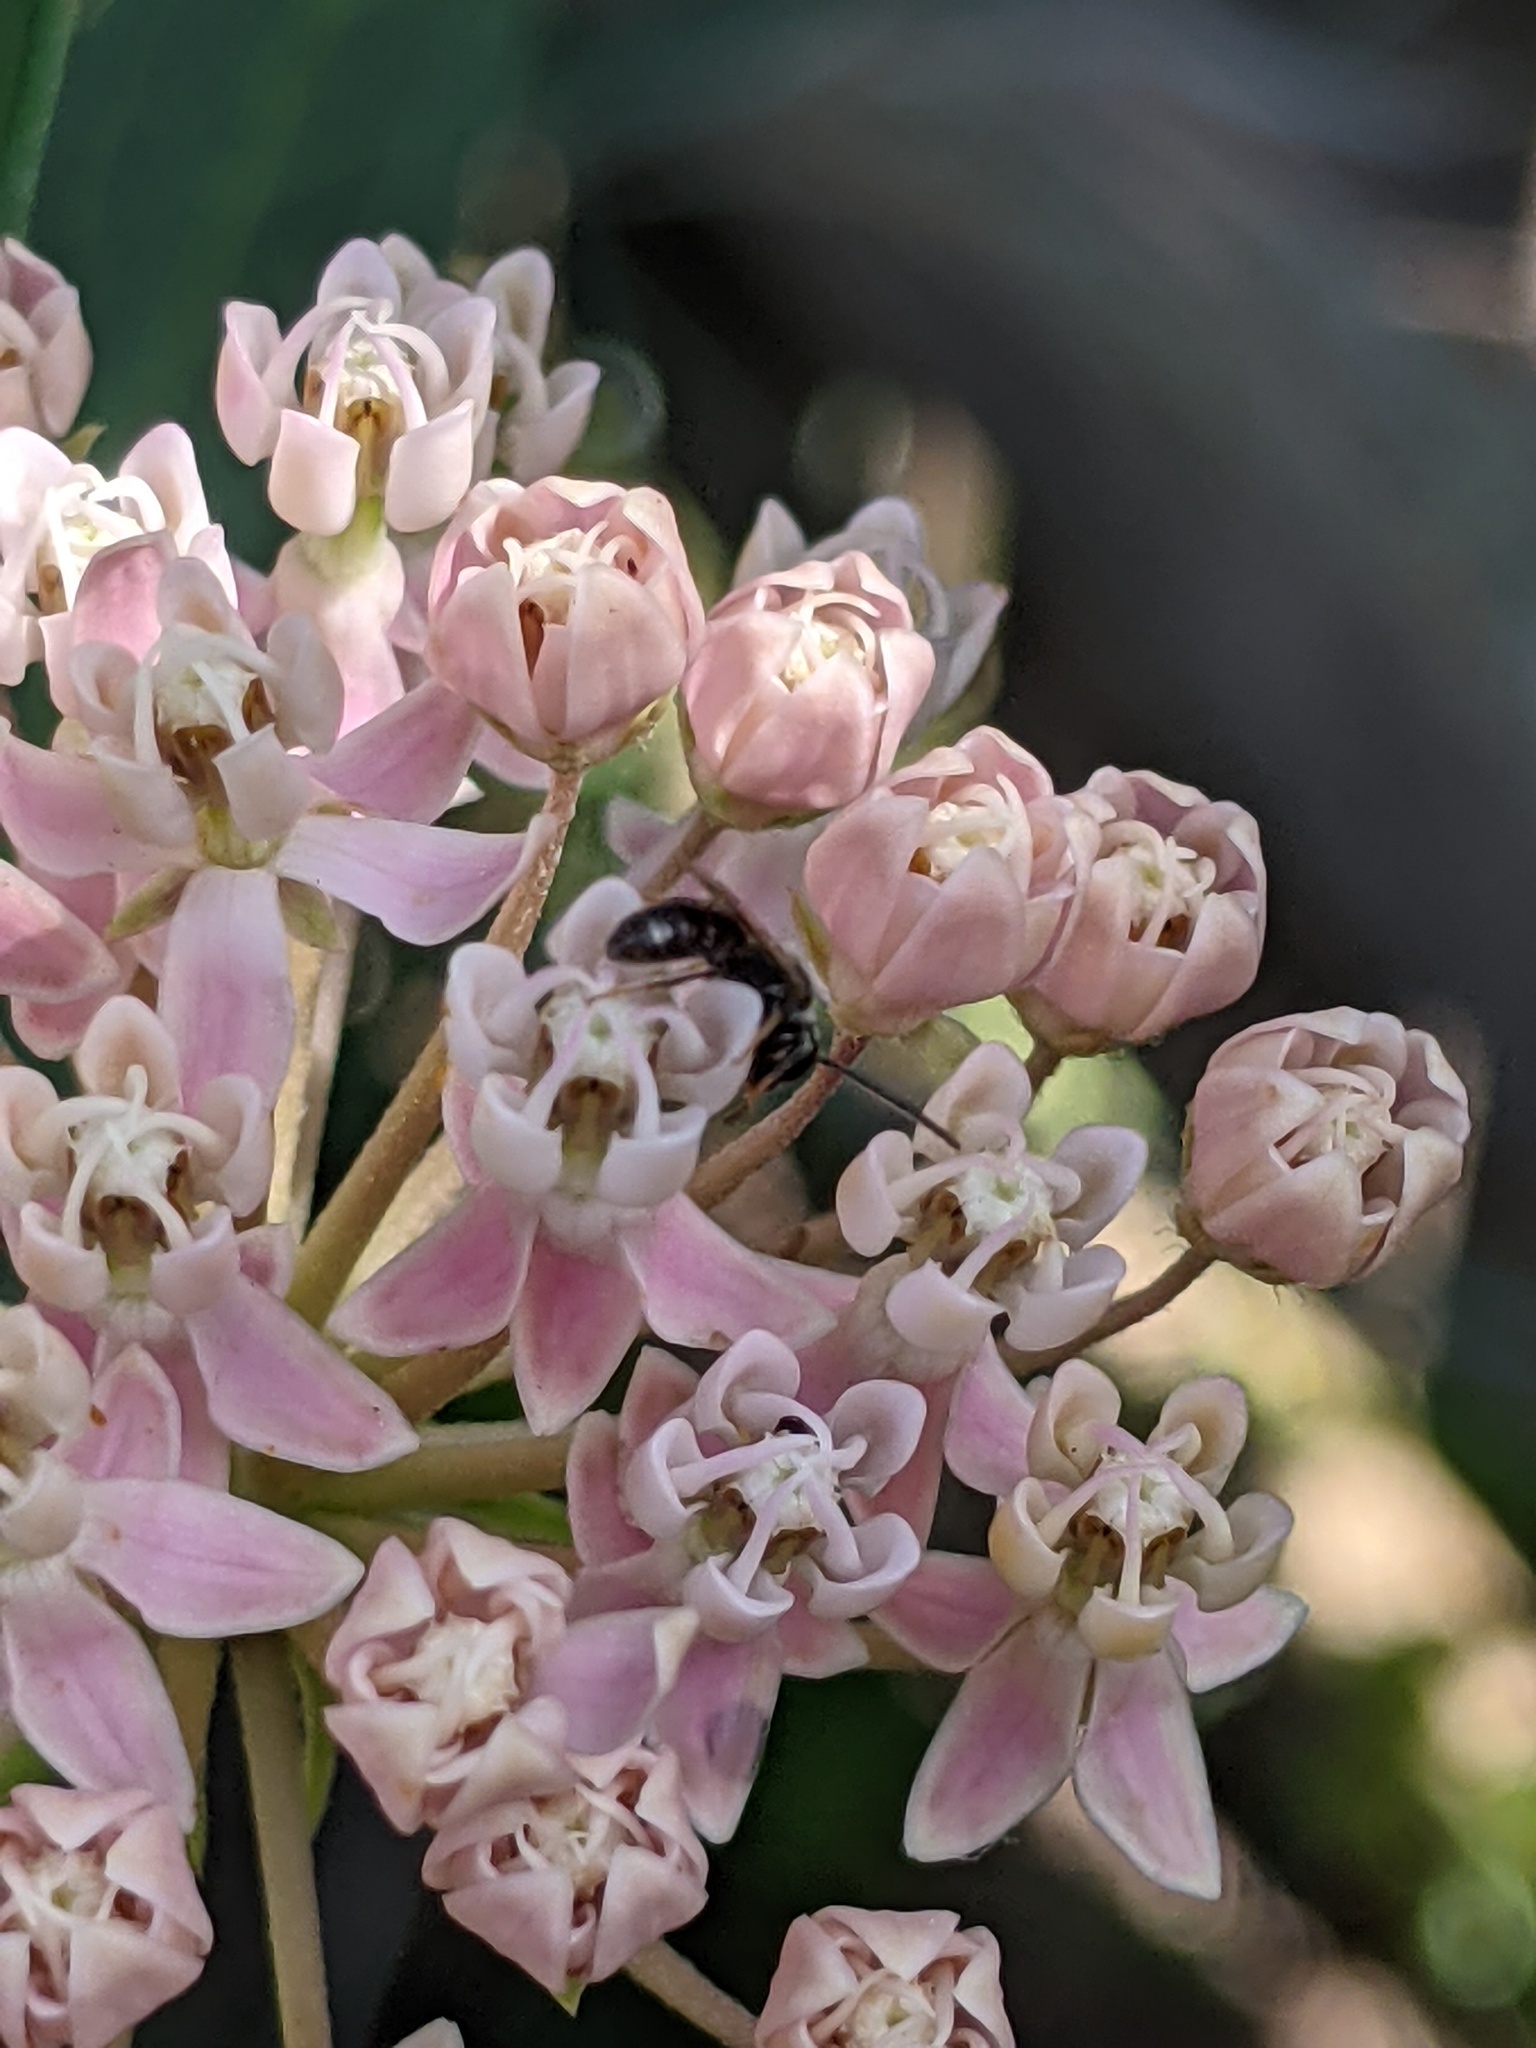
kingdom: Animalia
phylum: Arthropoda
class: Insecta
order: Hymenoptera
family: Halictidae
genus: Dialictus
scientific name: Dialictus
